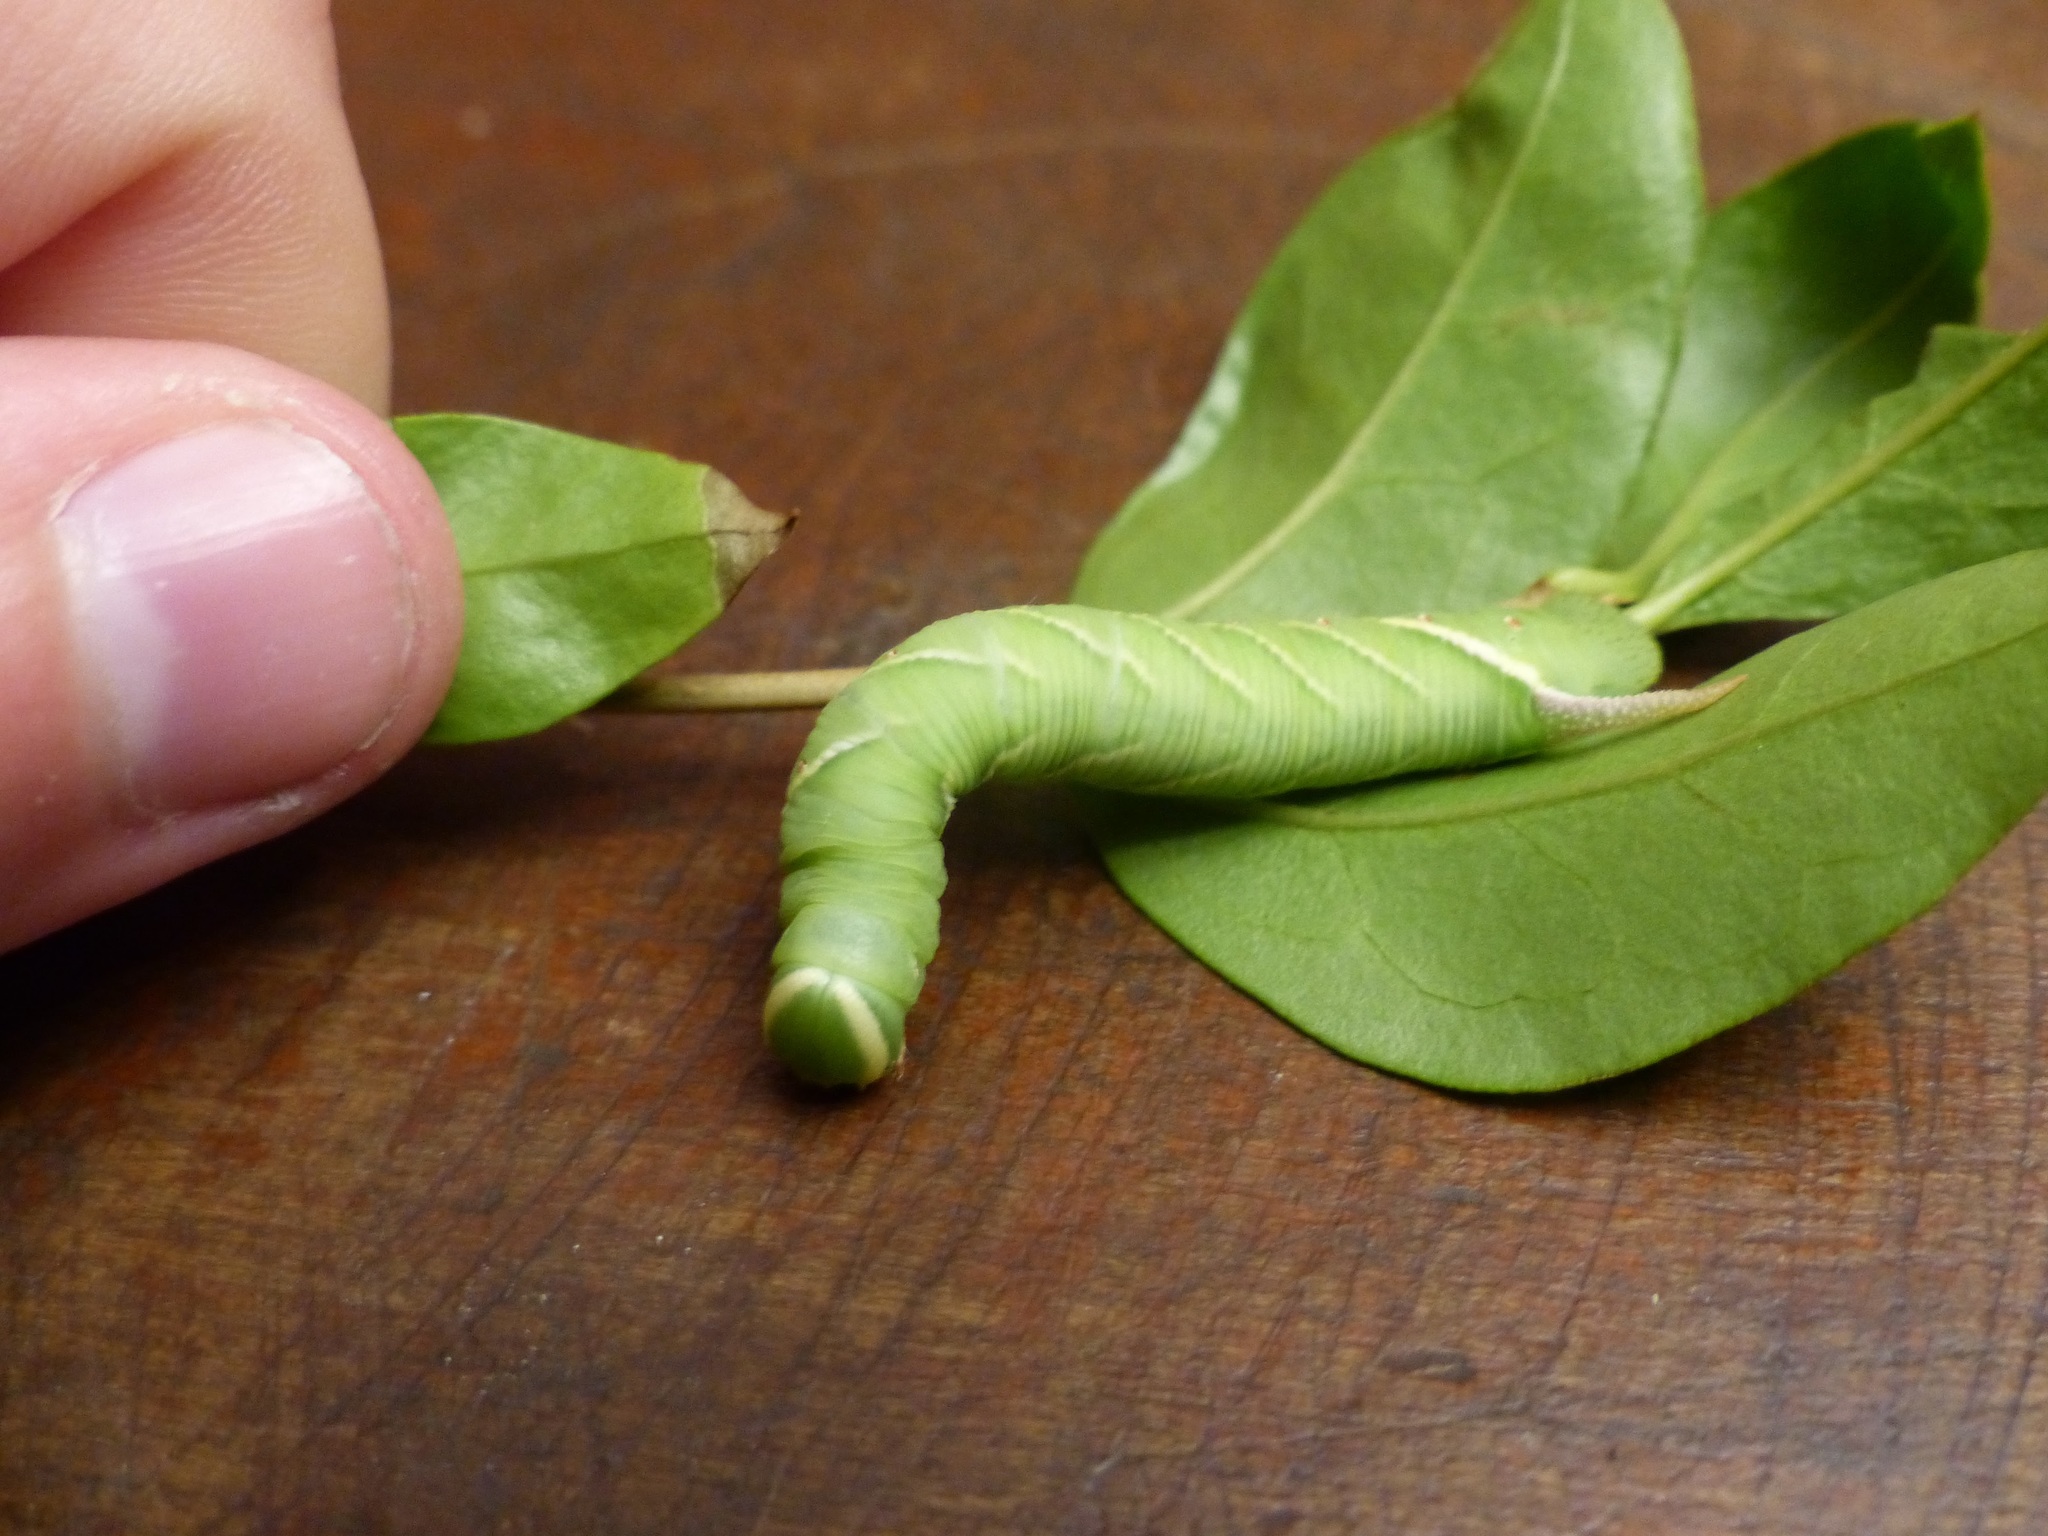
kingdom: Animalia
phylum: Arthropoda
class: Insecta
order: Lepidoptera
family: Sphingidae
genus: Ceratomia
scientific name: Ceratomia undulosa
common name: Waved sphinx
